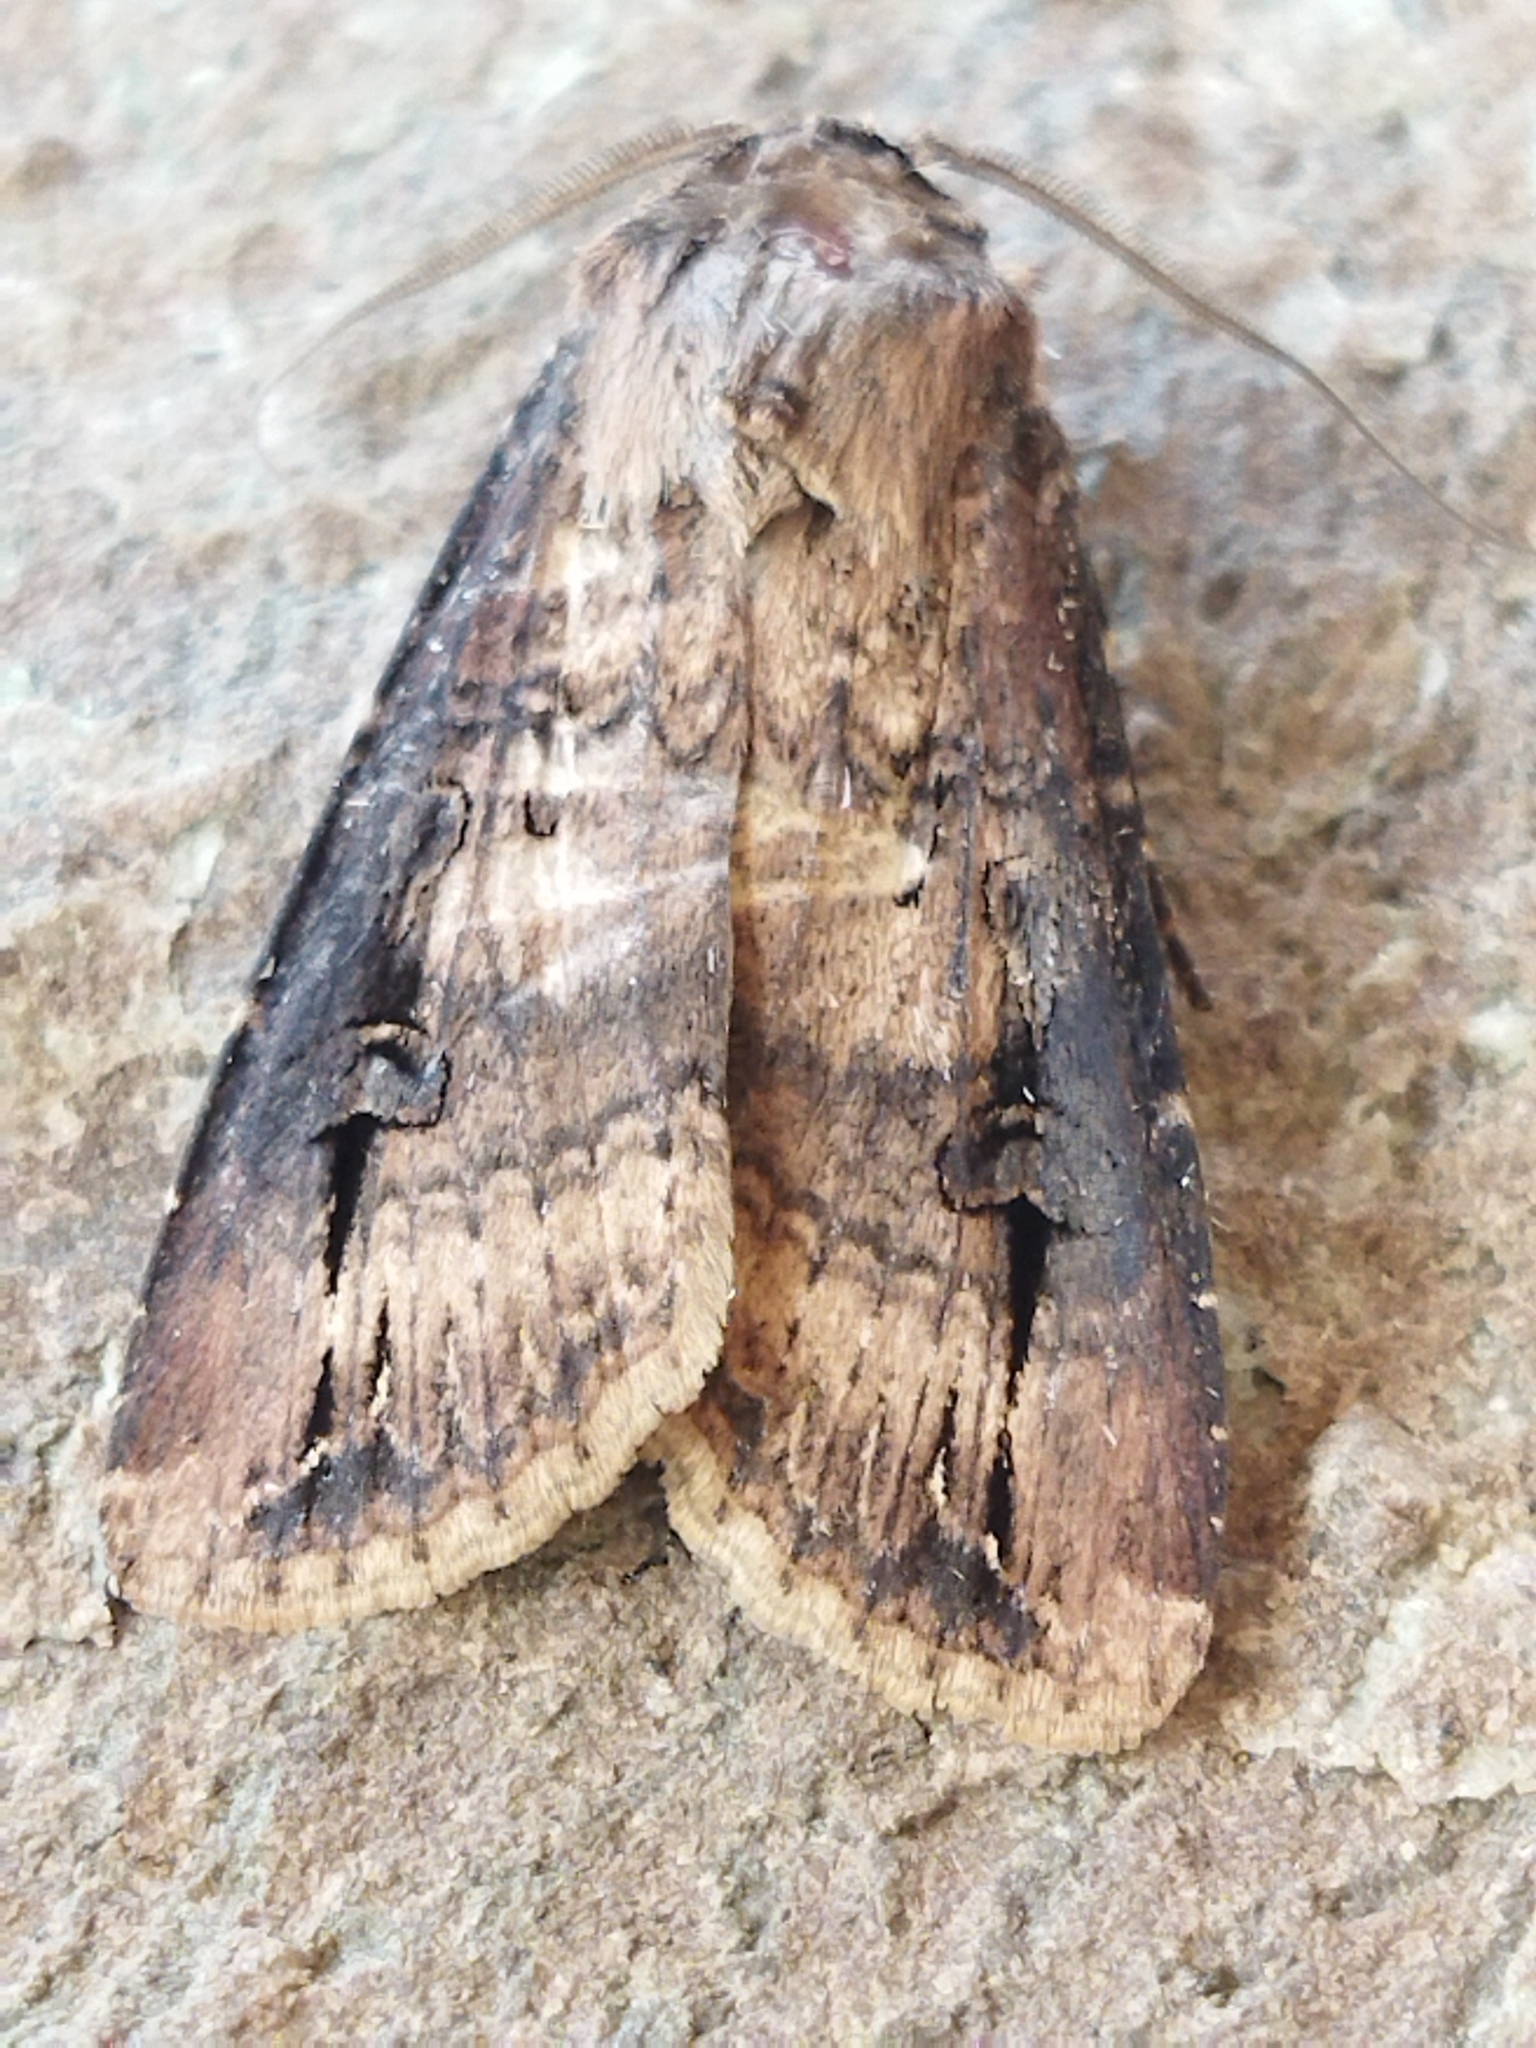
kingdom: Animalia
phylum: Arthropoda
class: Insecta
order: Lepidoptera
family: Noctuidae
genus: Agrotis
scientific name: Agrotis ipsilon
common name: Dark sword-grass
